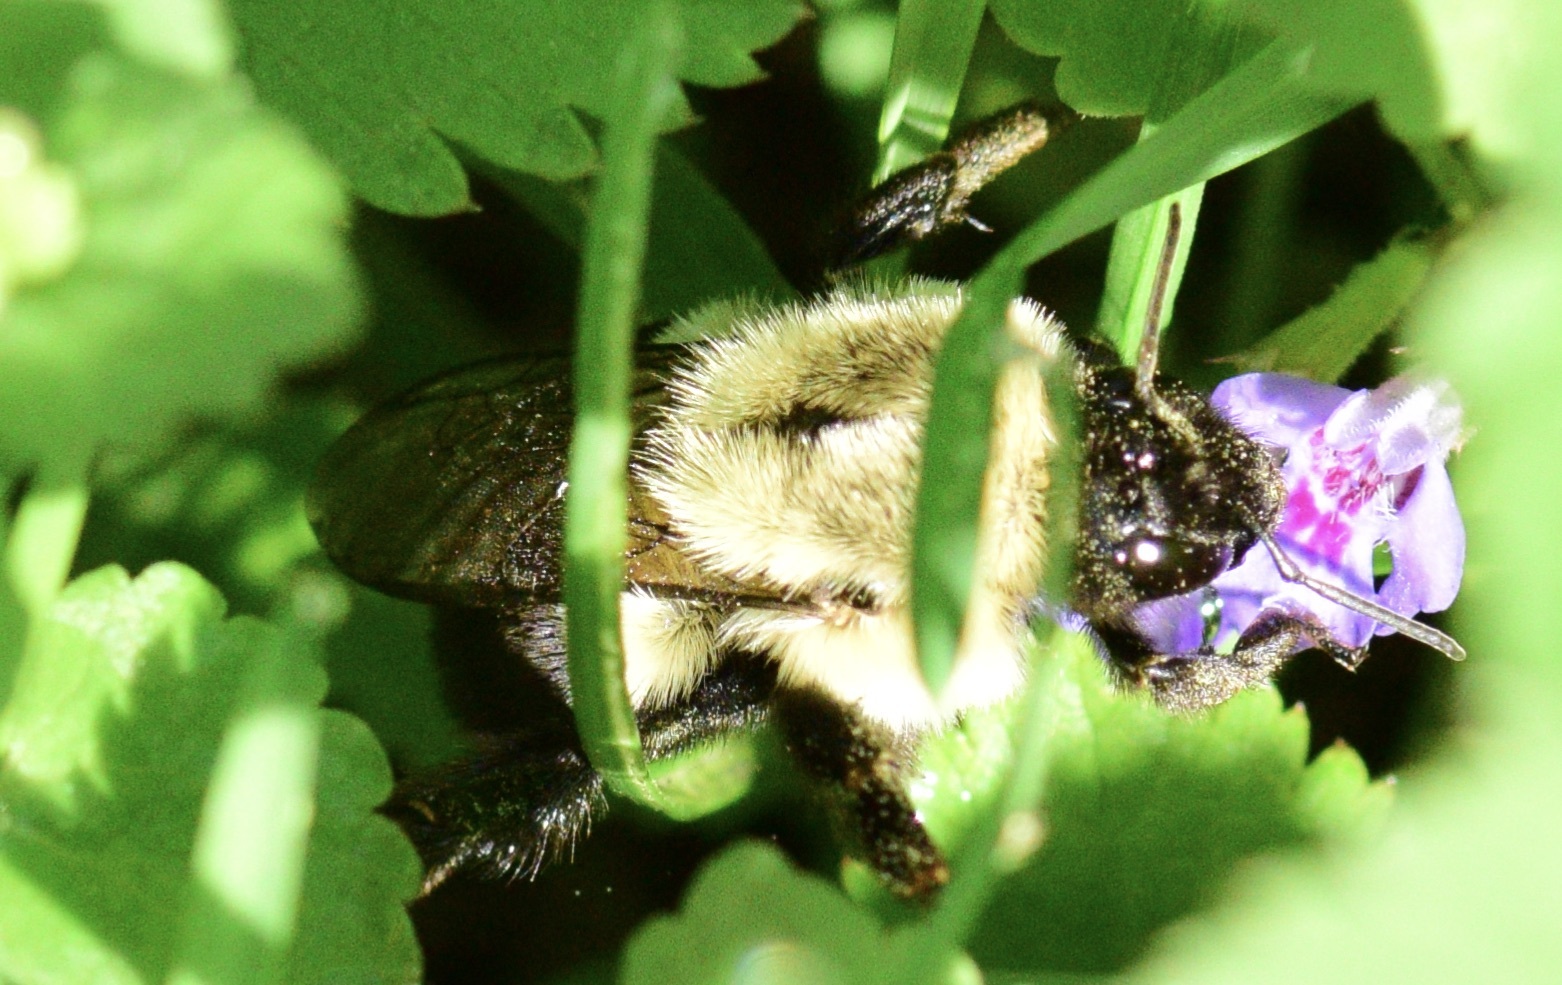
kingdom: Animalia
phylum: Arthropoda
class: Insecta
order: Hymenoptera
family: Apidae
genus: Bombus
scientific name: Bombus impatiens
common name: Common eastern bumble bee
